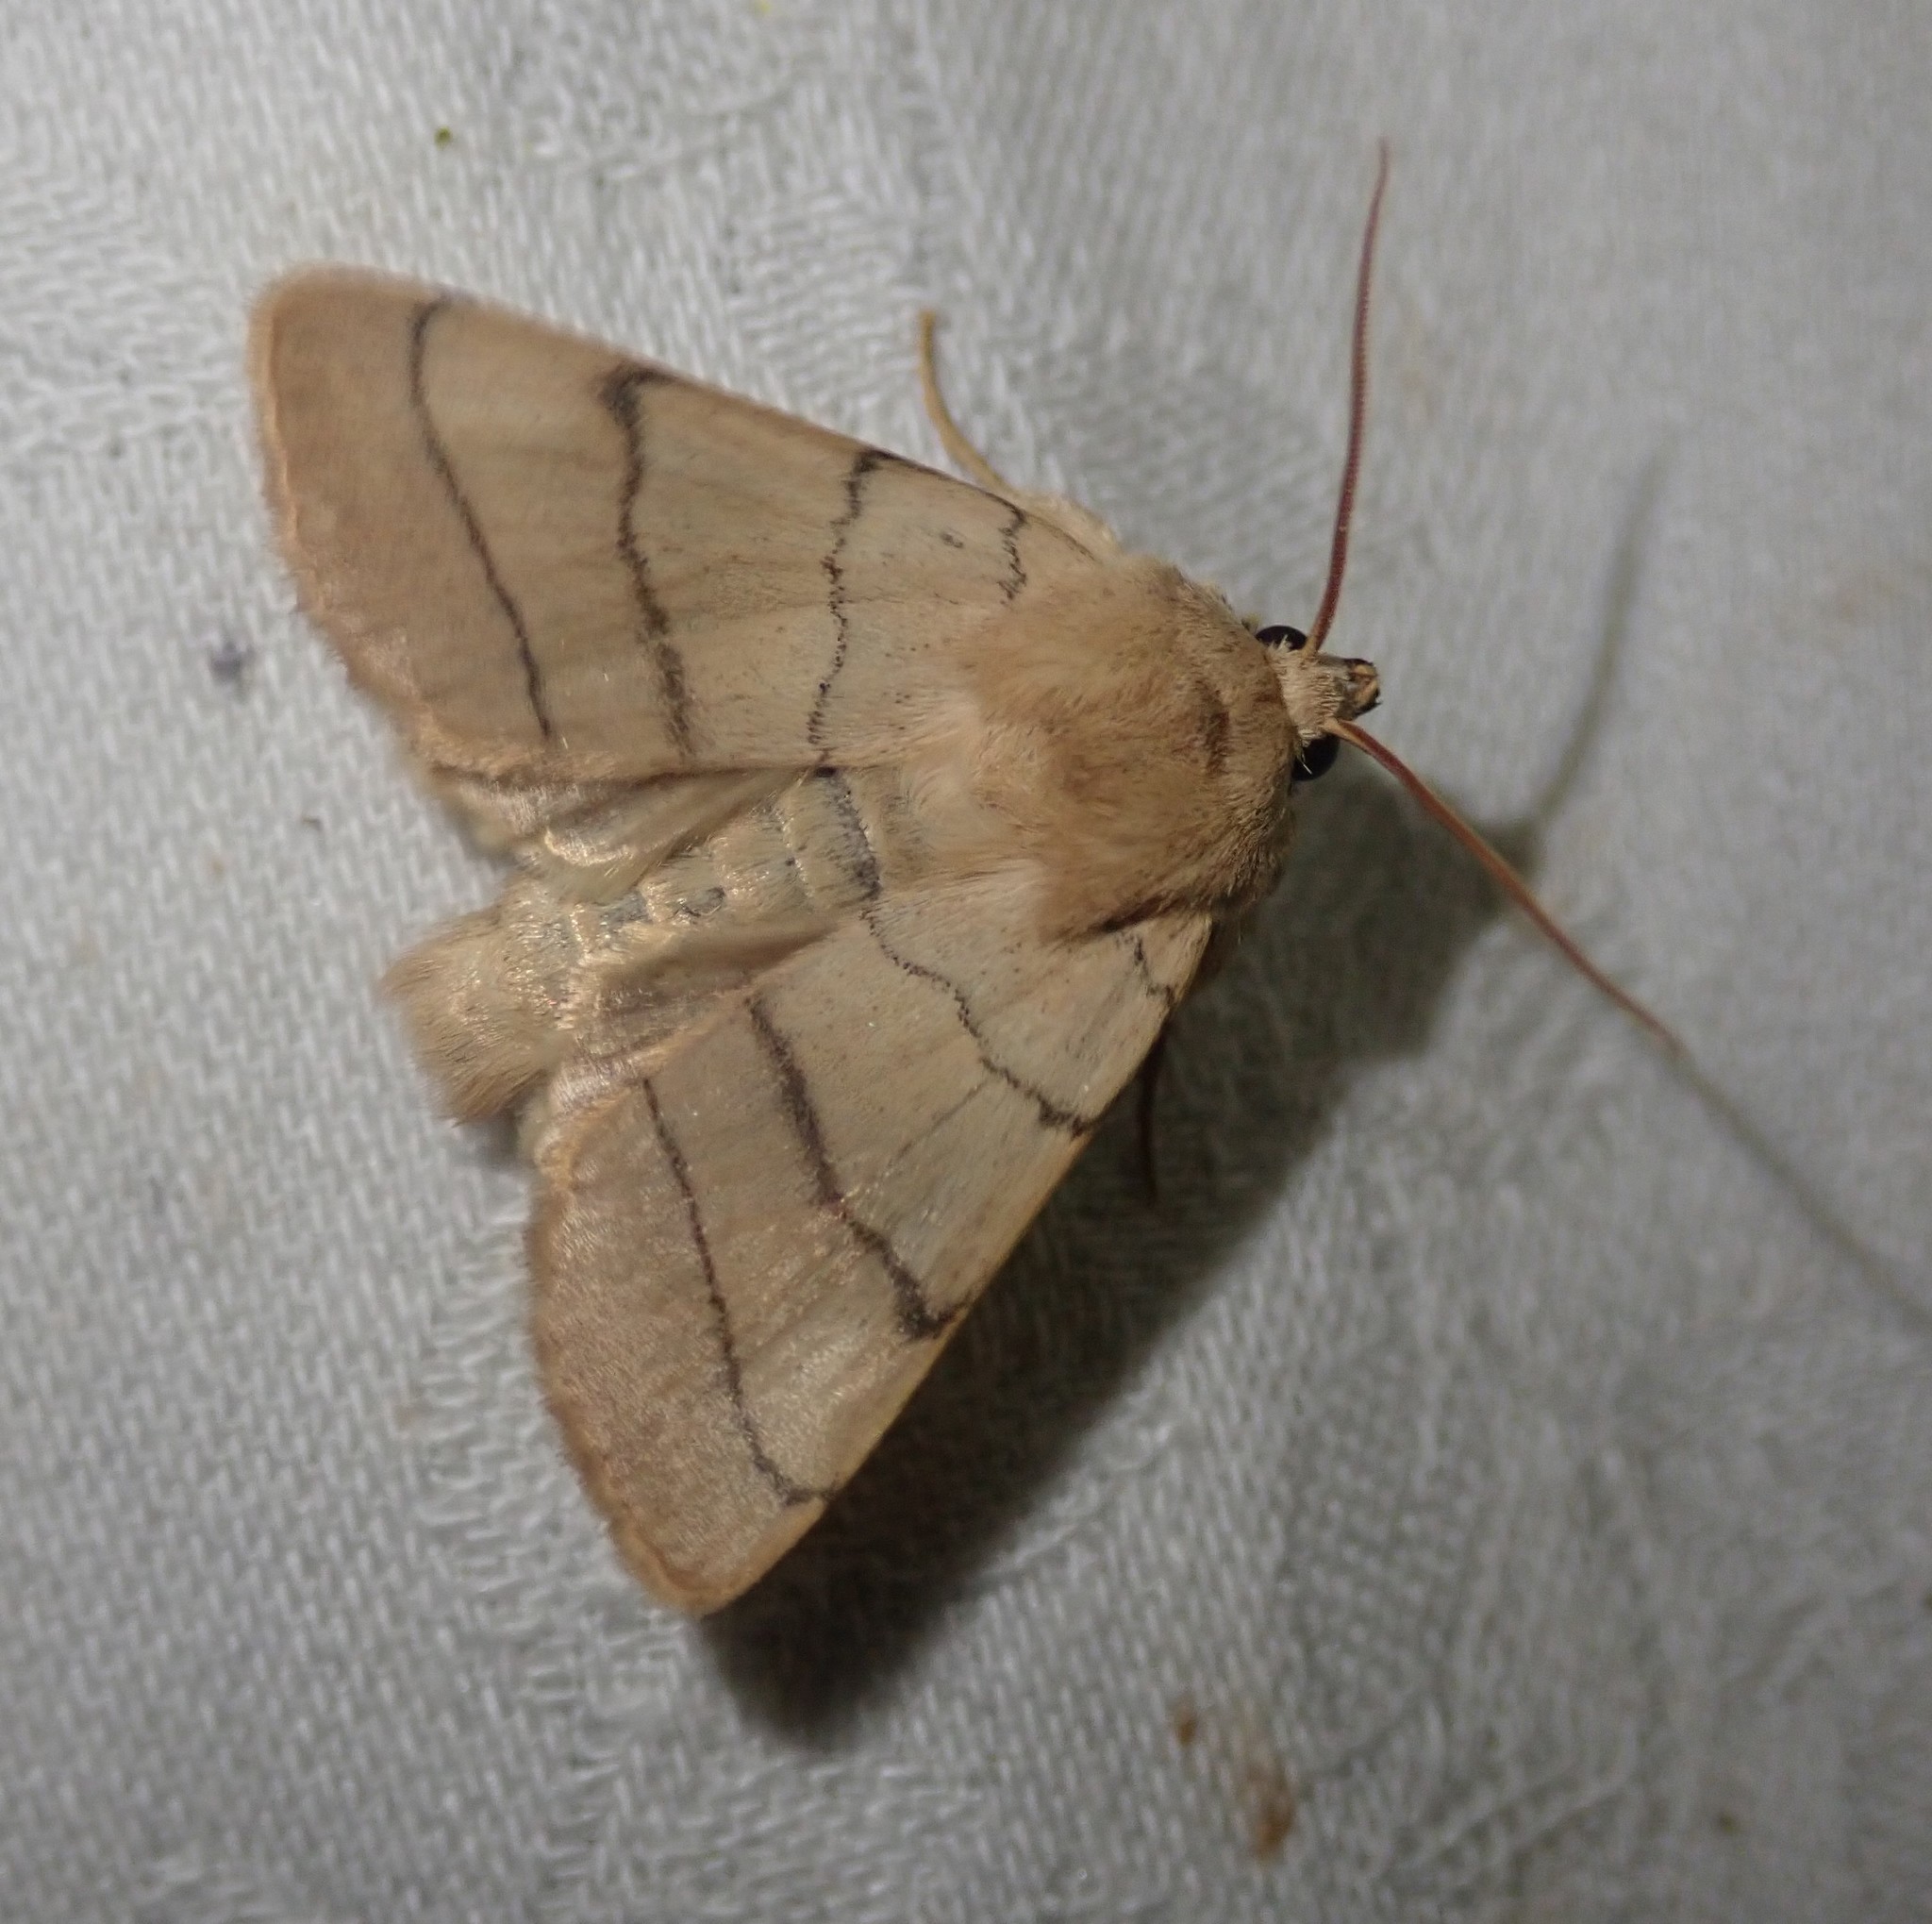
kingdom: Animalia
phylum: Arthropoda
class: Insecta
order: Lepidoptera
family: Noctuidae
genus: Charanyca
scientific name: Charanyca trigrammica
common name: Treble lines
